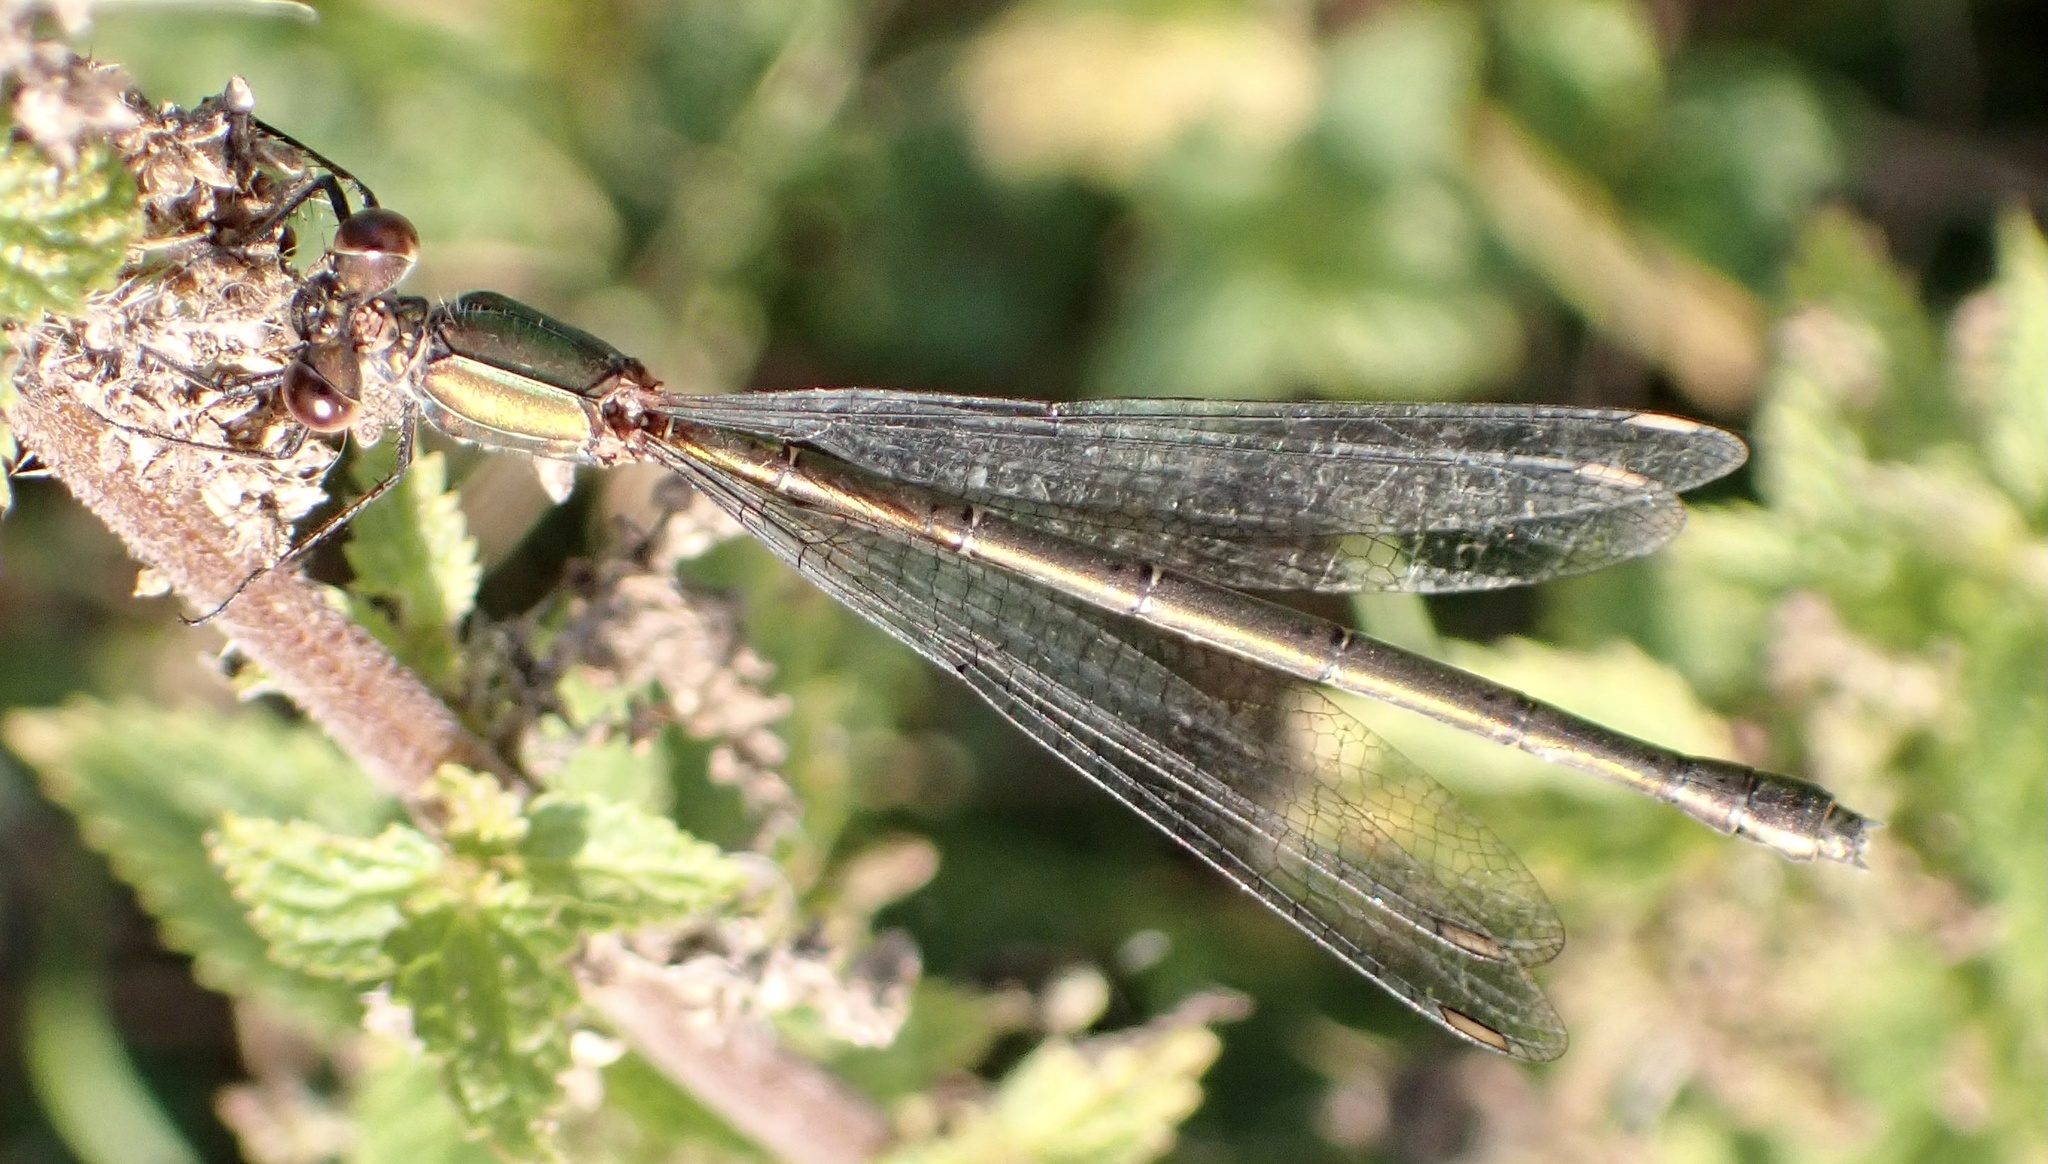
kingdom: Animalia
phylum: Arthropoda
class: Insecta
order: Odonata
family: Lestidae
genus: Chalcolestes
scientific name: Chalcolestes viridis
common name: Green emerald damselfly
